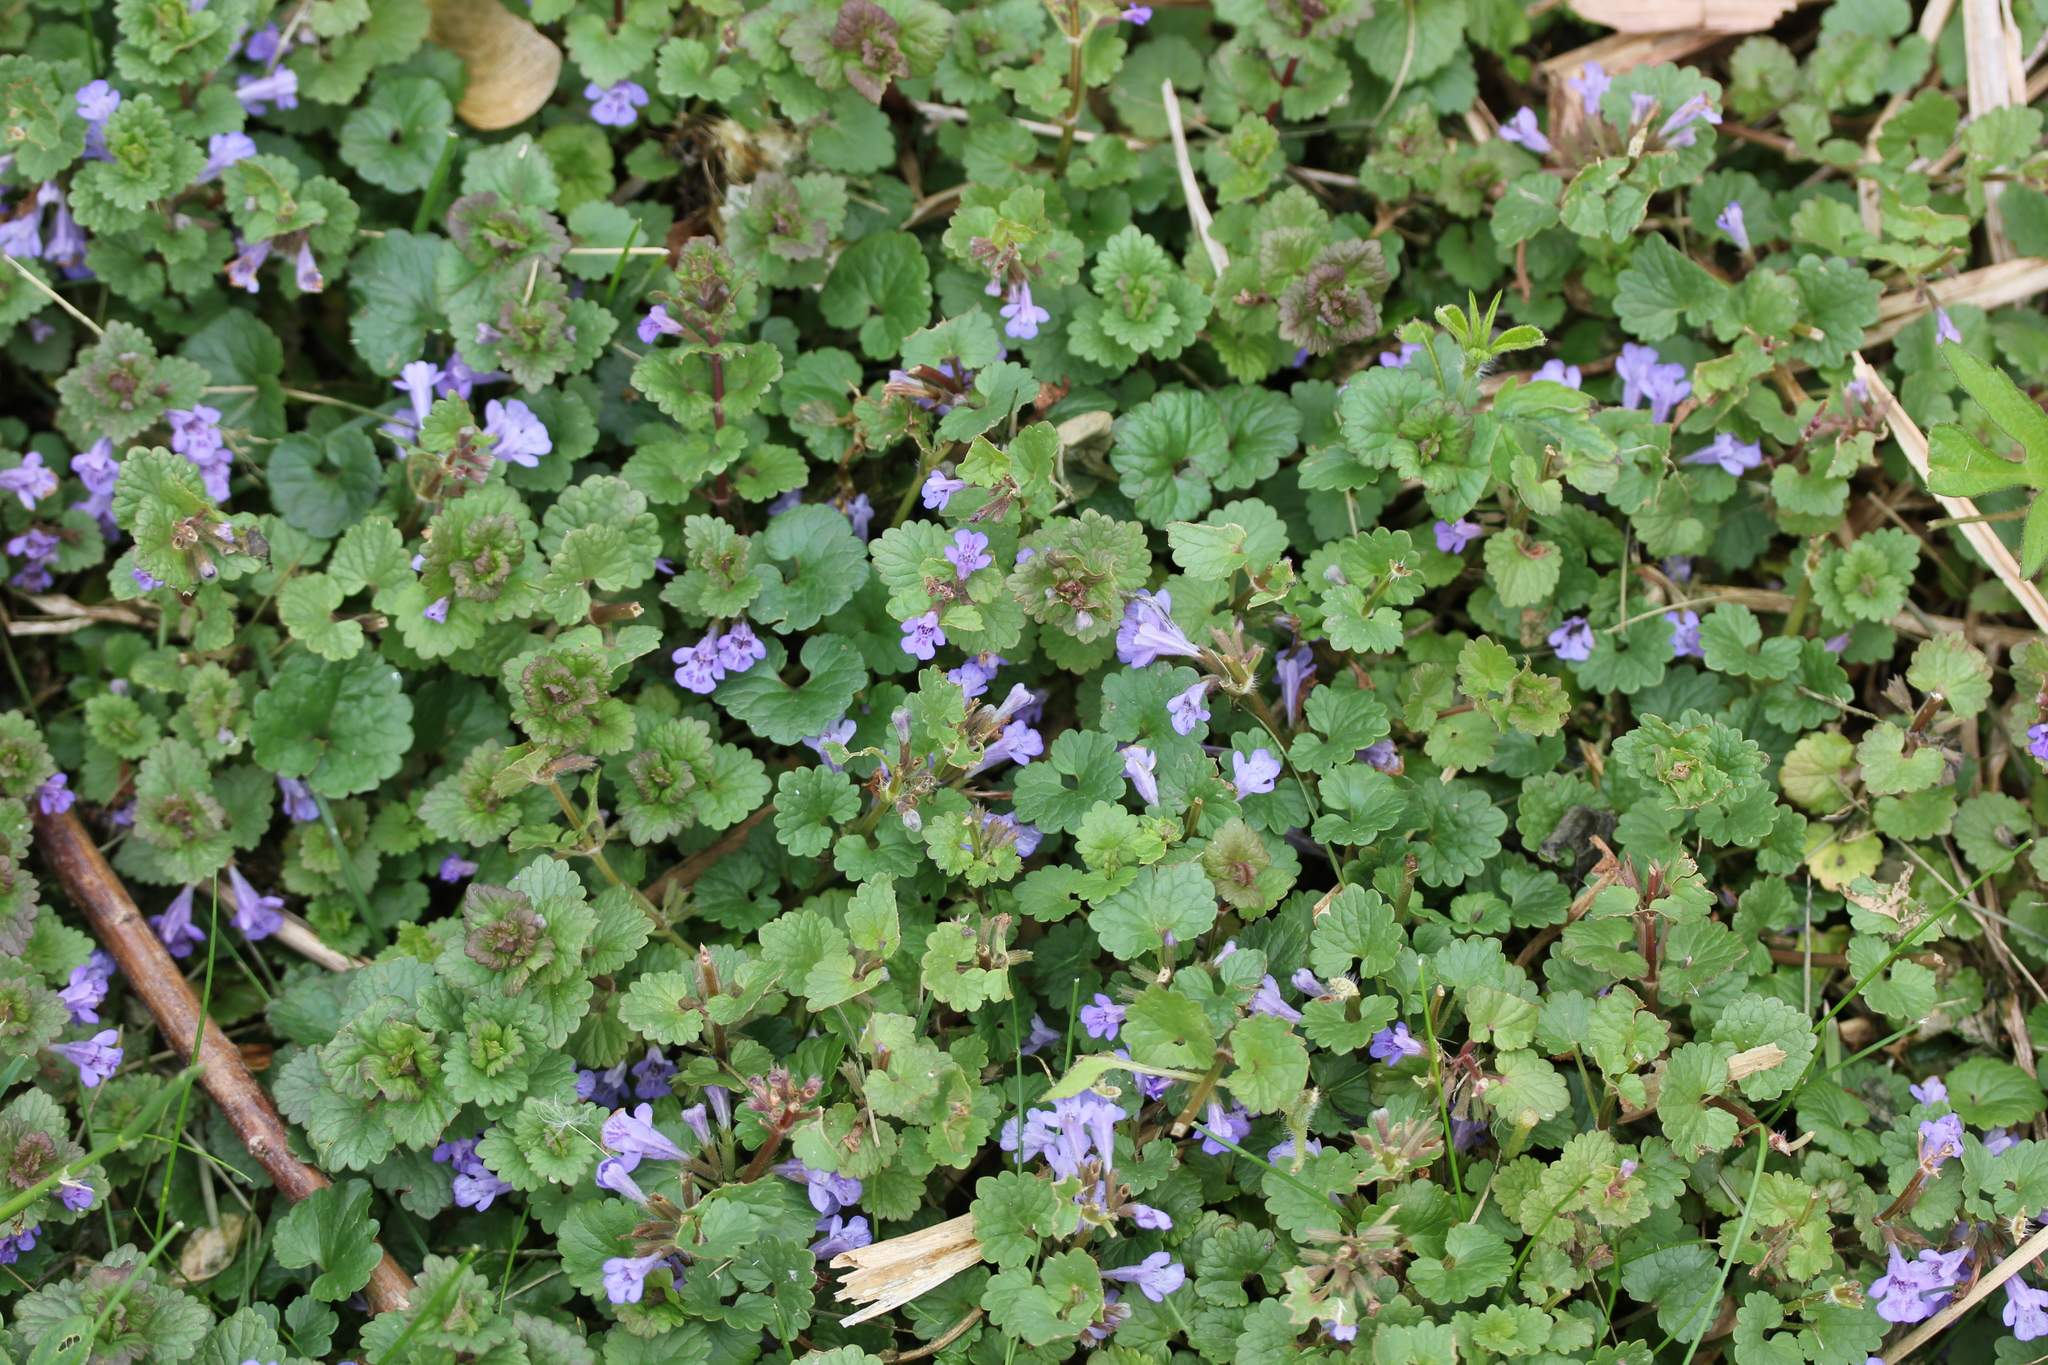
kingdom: Plantae
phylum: Tracheophyta
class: Magnoliopsida
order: Lamiales
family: Lamiaceae
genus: Glechoma
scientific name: Glechoma hederacea
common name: Ground ivy
